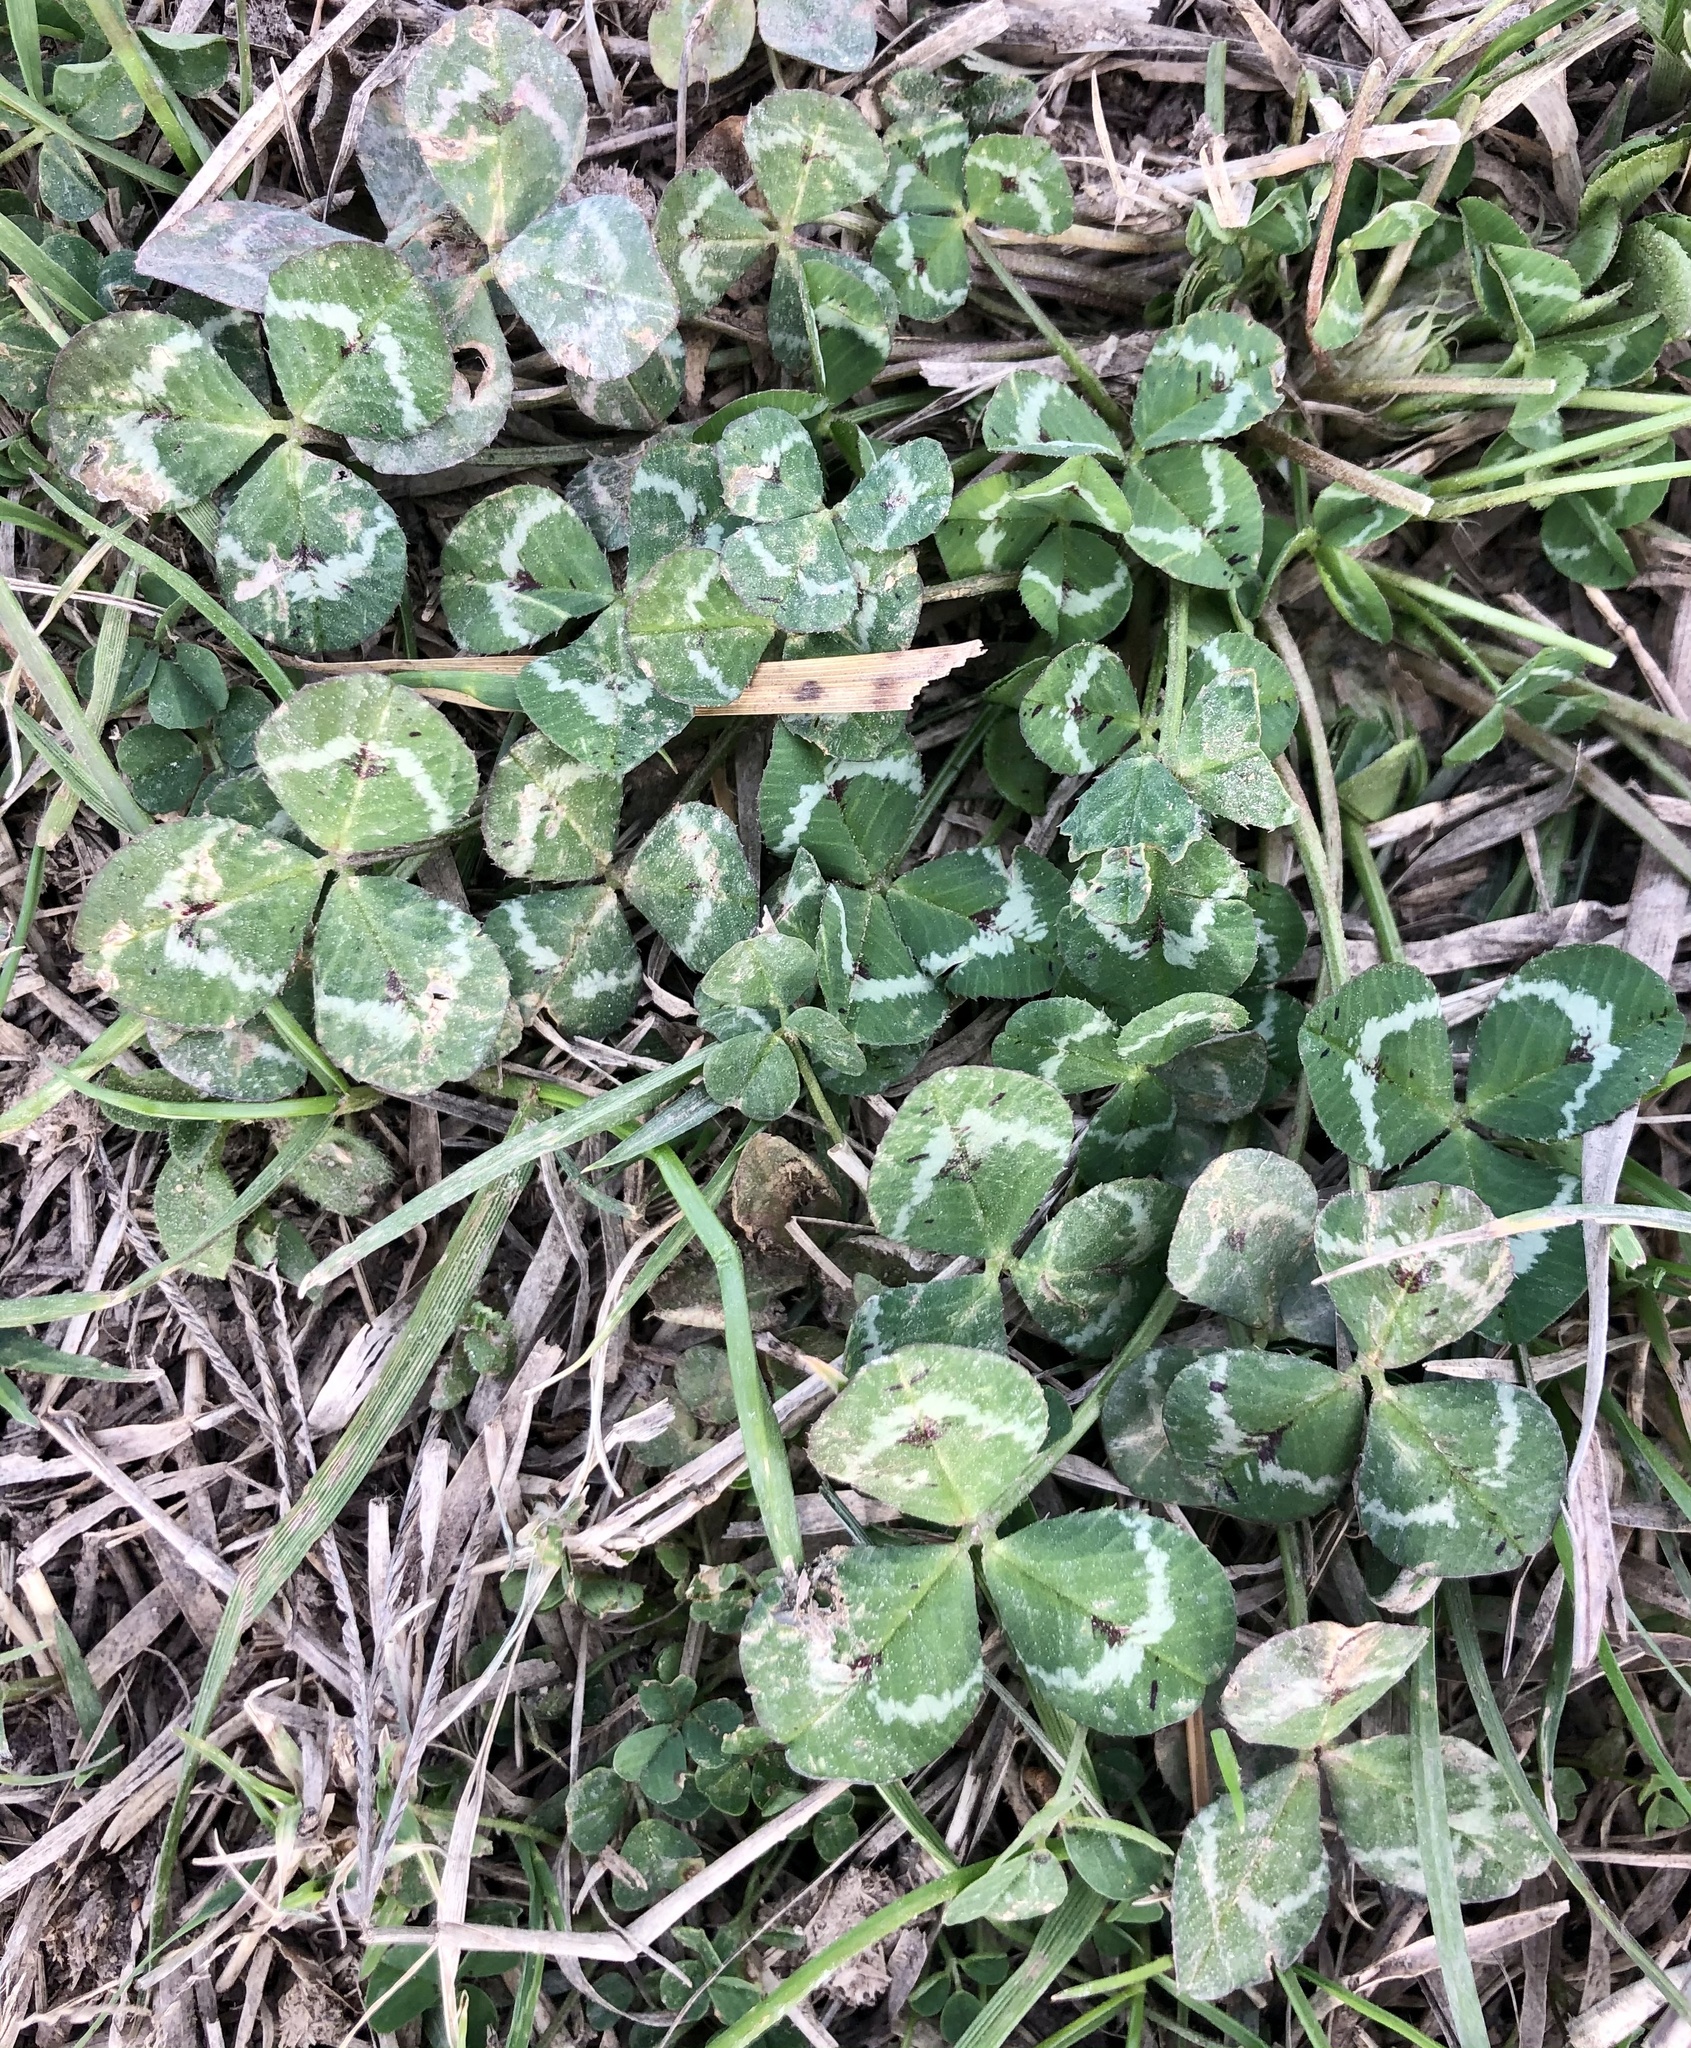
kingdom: Plantae
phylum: Tracheophyta
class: Magnoliopsida
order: Fabales
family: Fabaceae
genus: Trifolium
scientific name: Trifolium repens
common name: White clover
